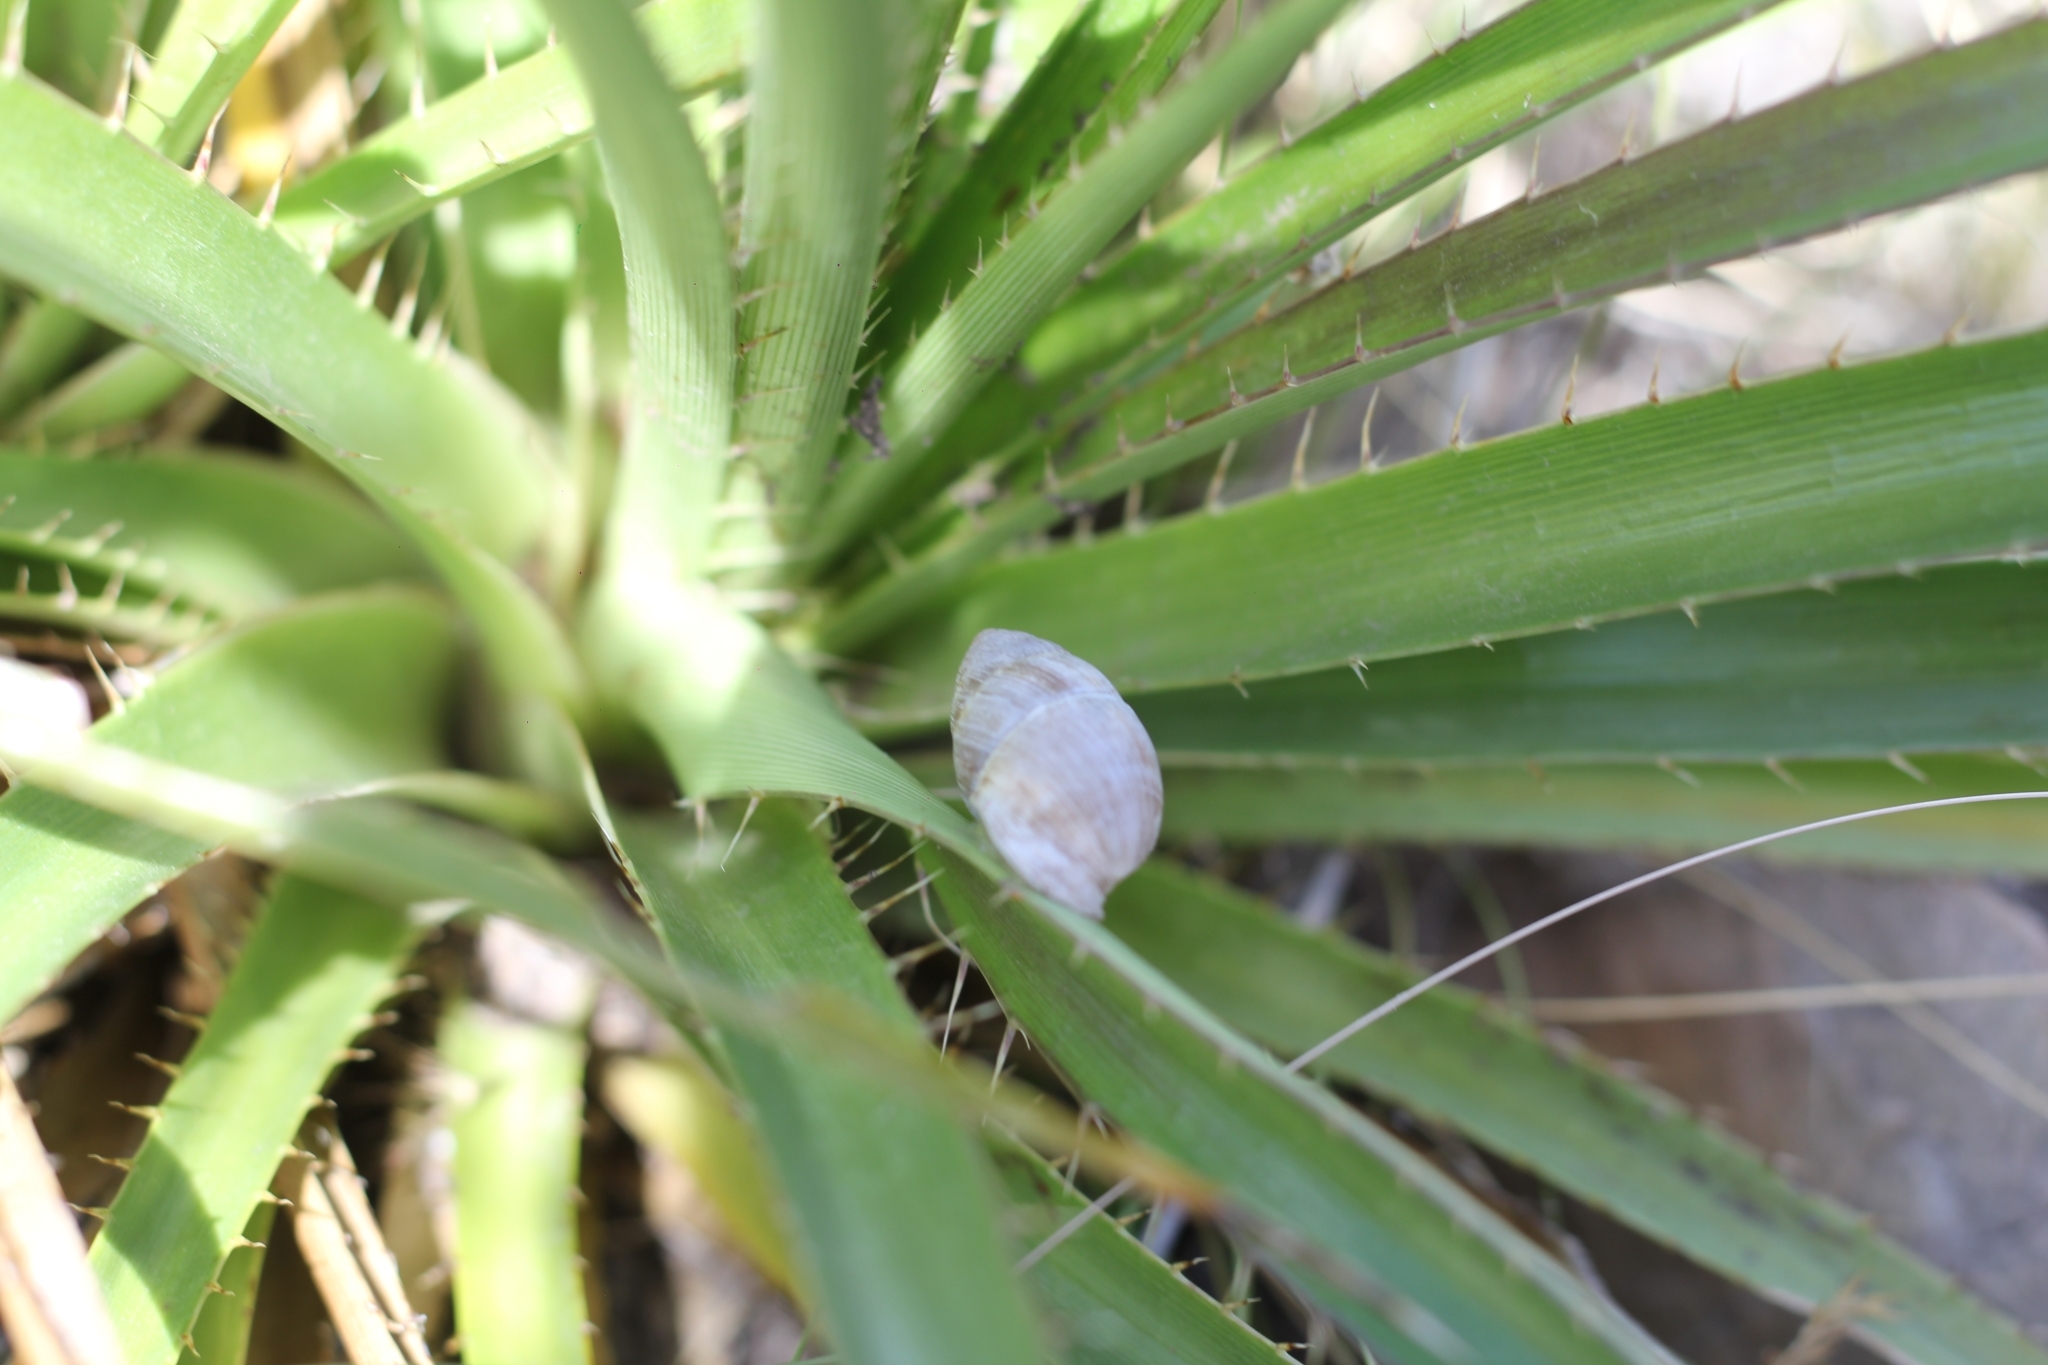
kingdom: Animalia
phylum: Mollusca
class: Gastropoda
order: Stylommatophora
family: Odontostomidae
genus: Plagiodontes
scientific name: Plagiodontes patagonicus
